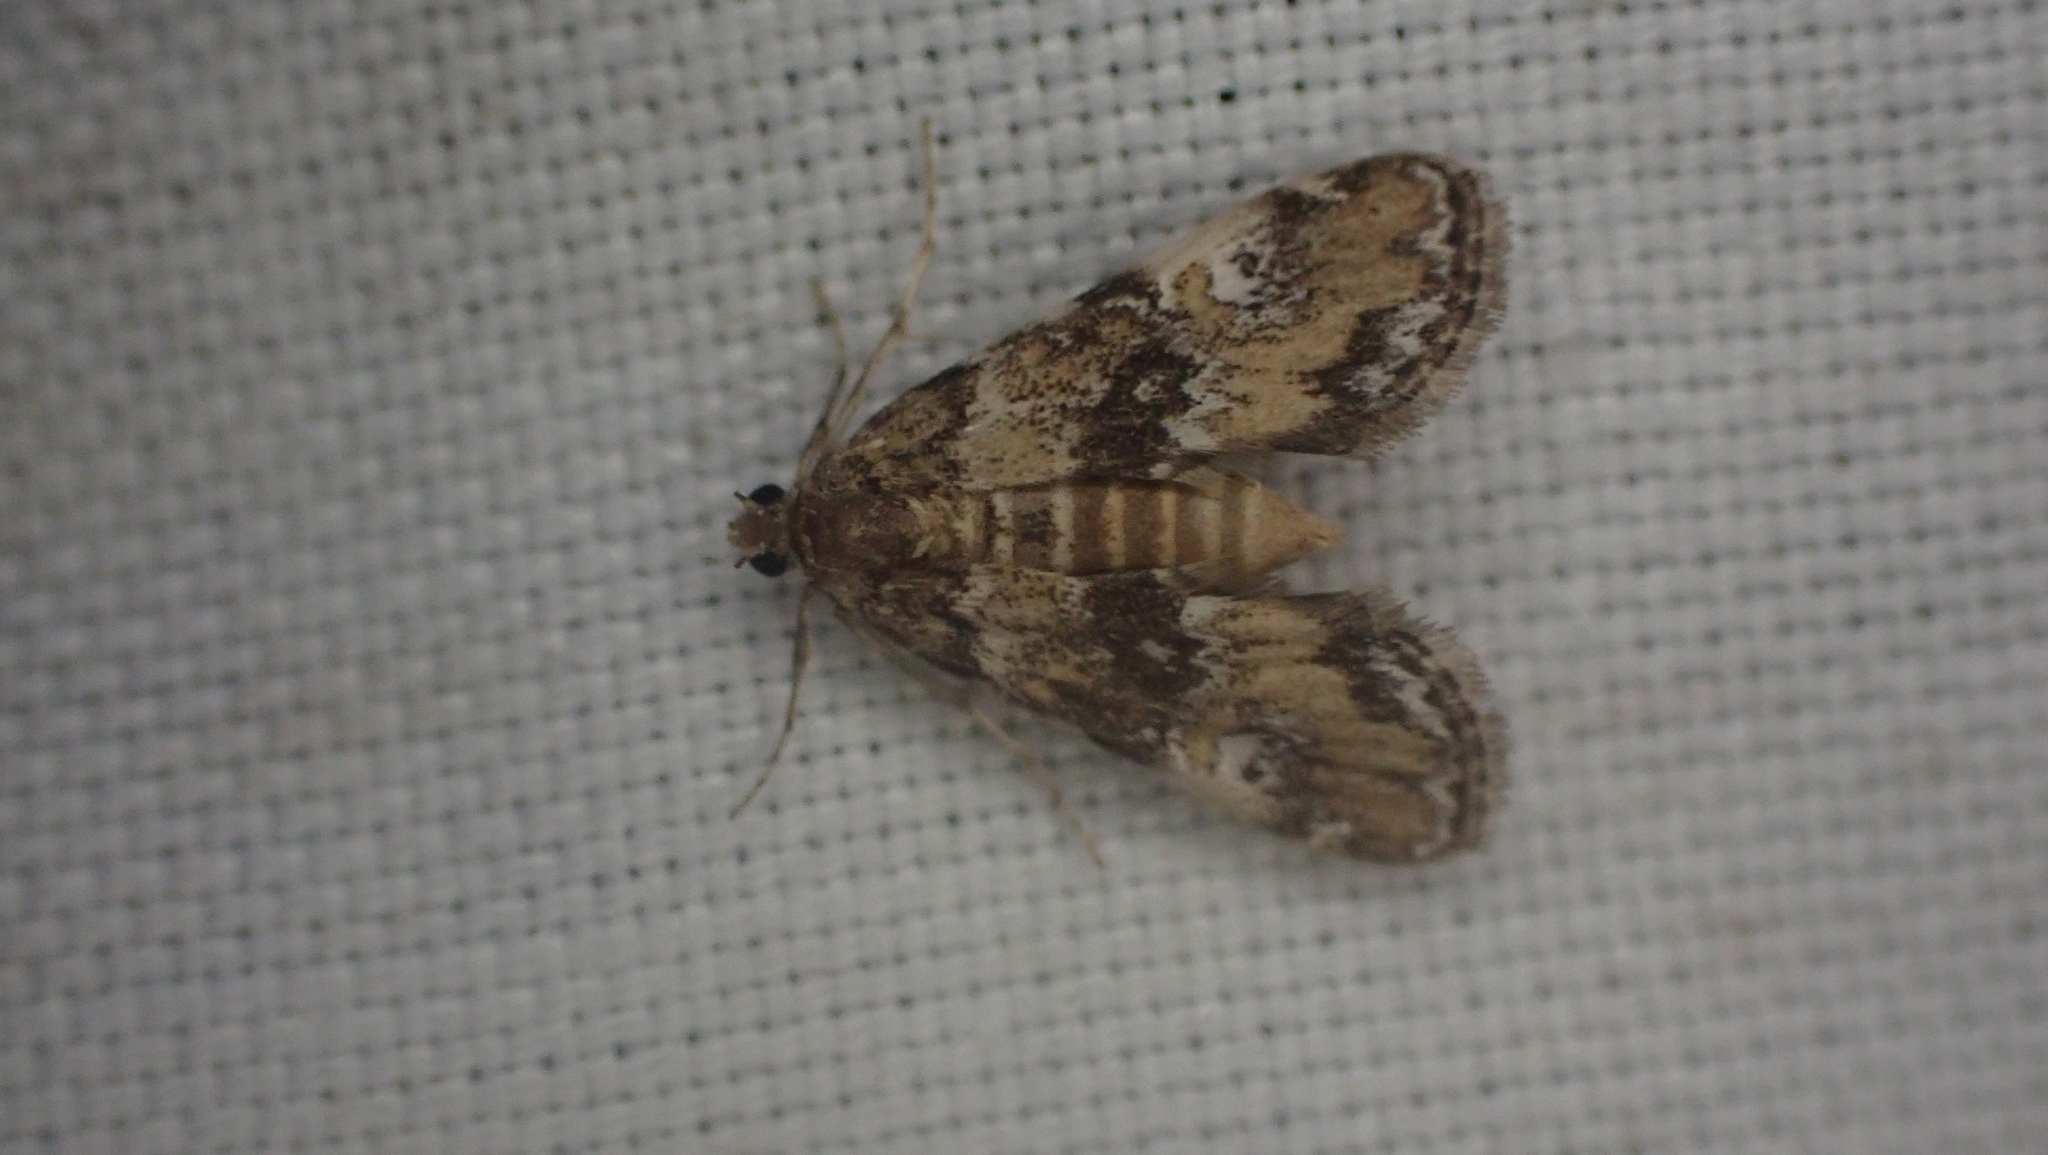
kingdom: Animalia
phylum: Arthropoda
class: Insecta
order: Lepidoptera
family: Crambidae
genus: Elophila
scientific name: Elophila obliteralis
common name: Waterlily leafcutter moth
